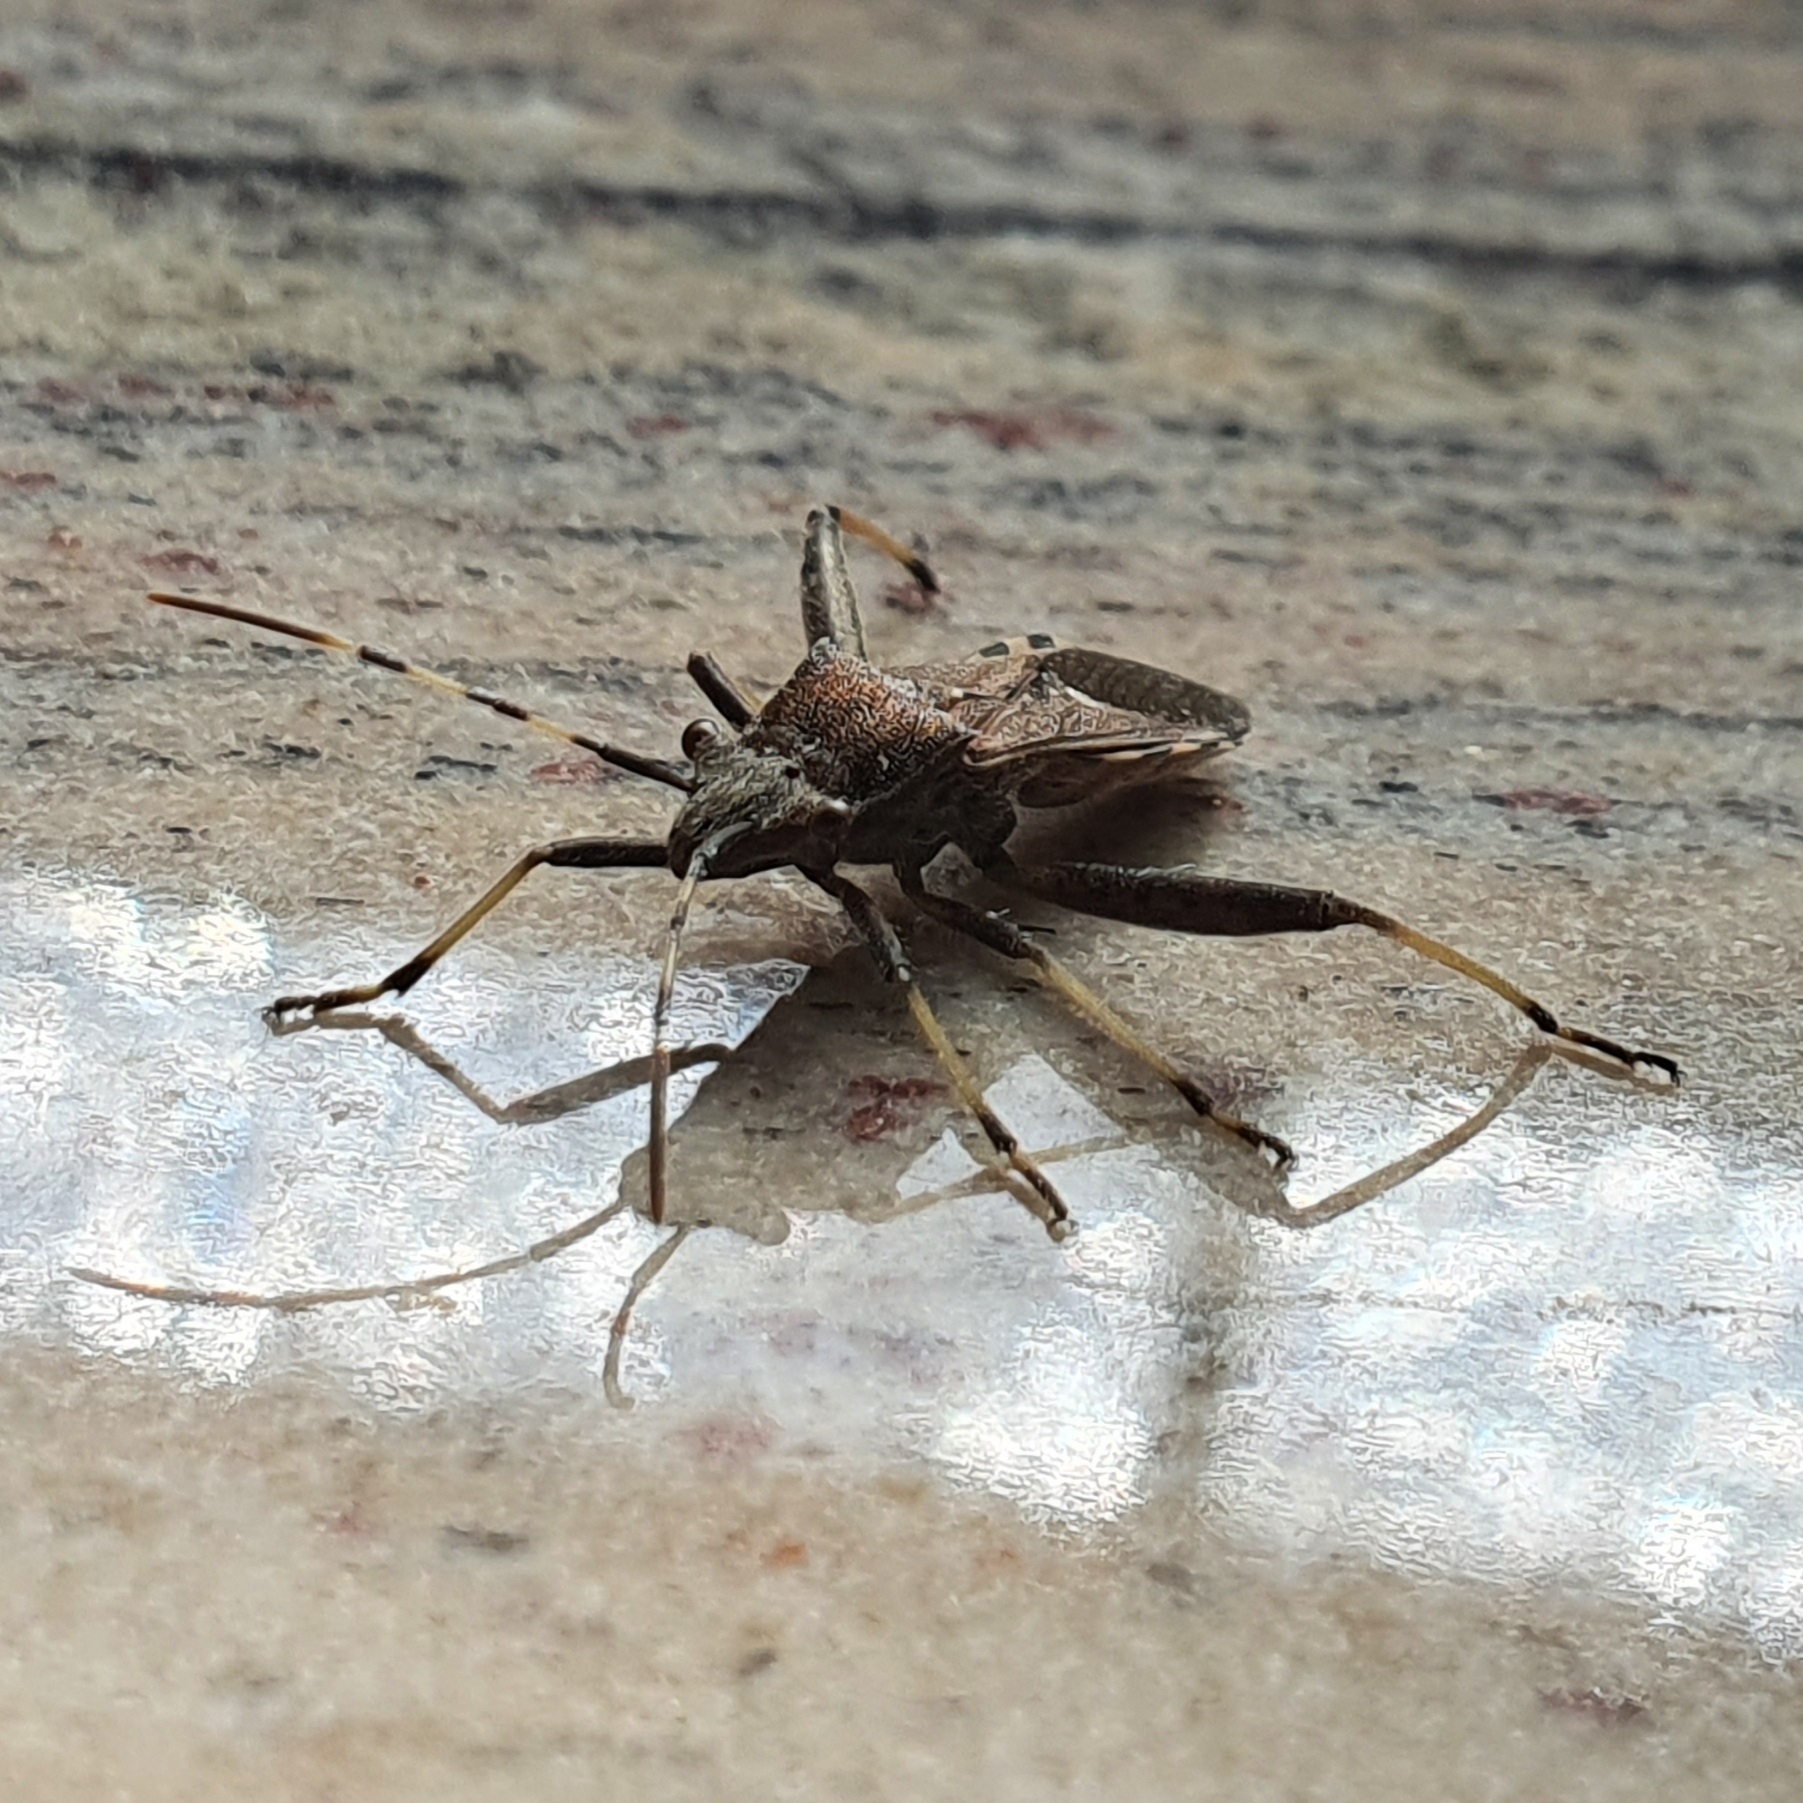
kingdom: Animalia
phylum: Arthropoda
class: Insecta
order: Hemiptera
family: Alydidae
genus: Camptopus
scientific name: Camptopus lateralis
